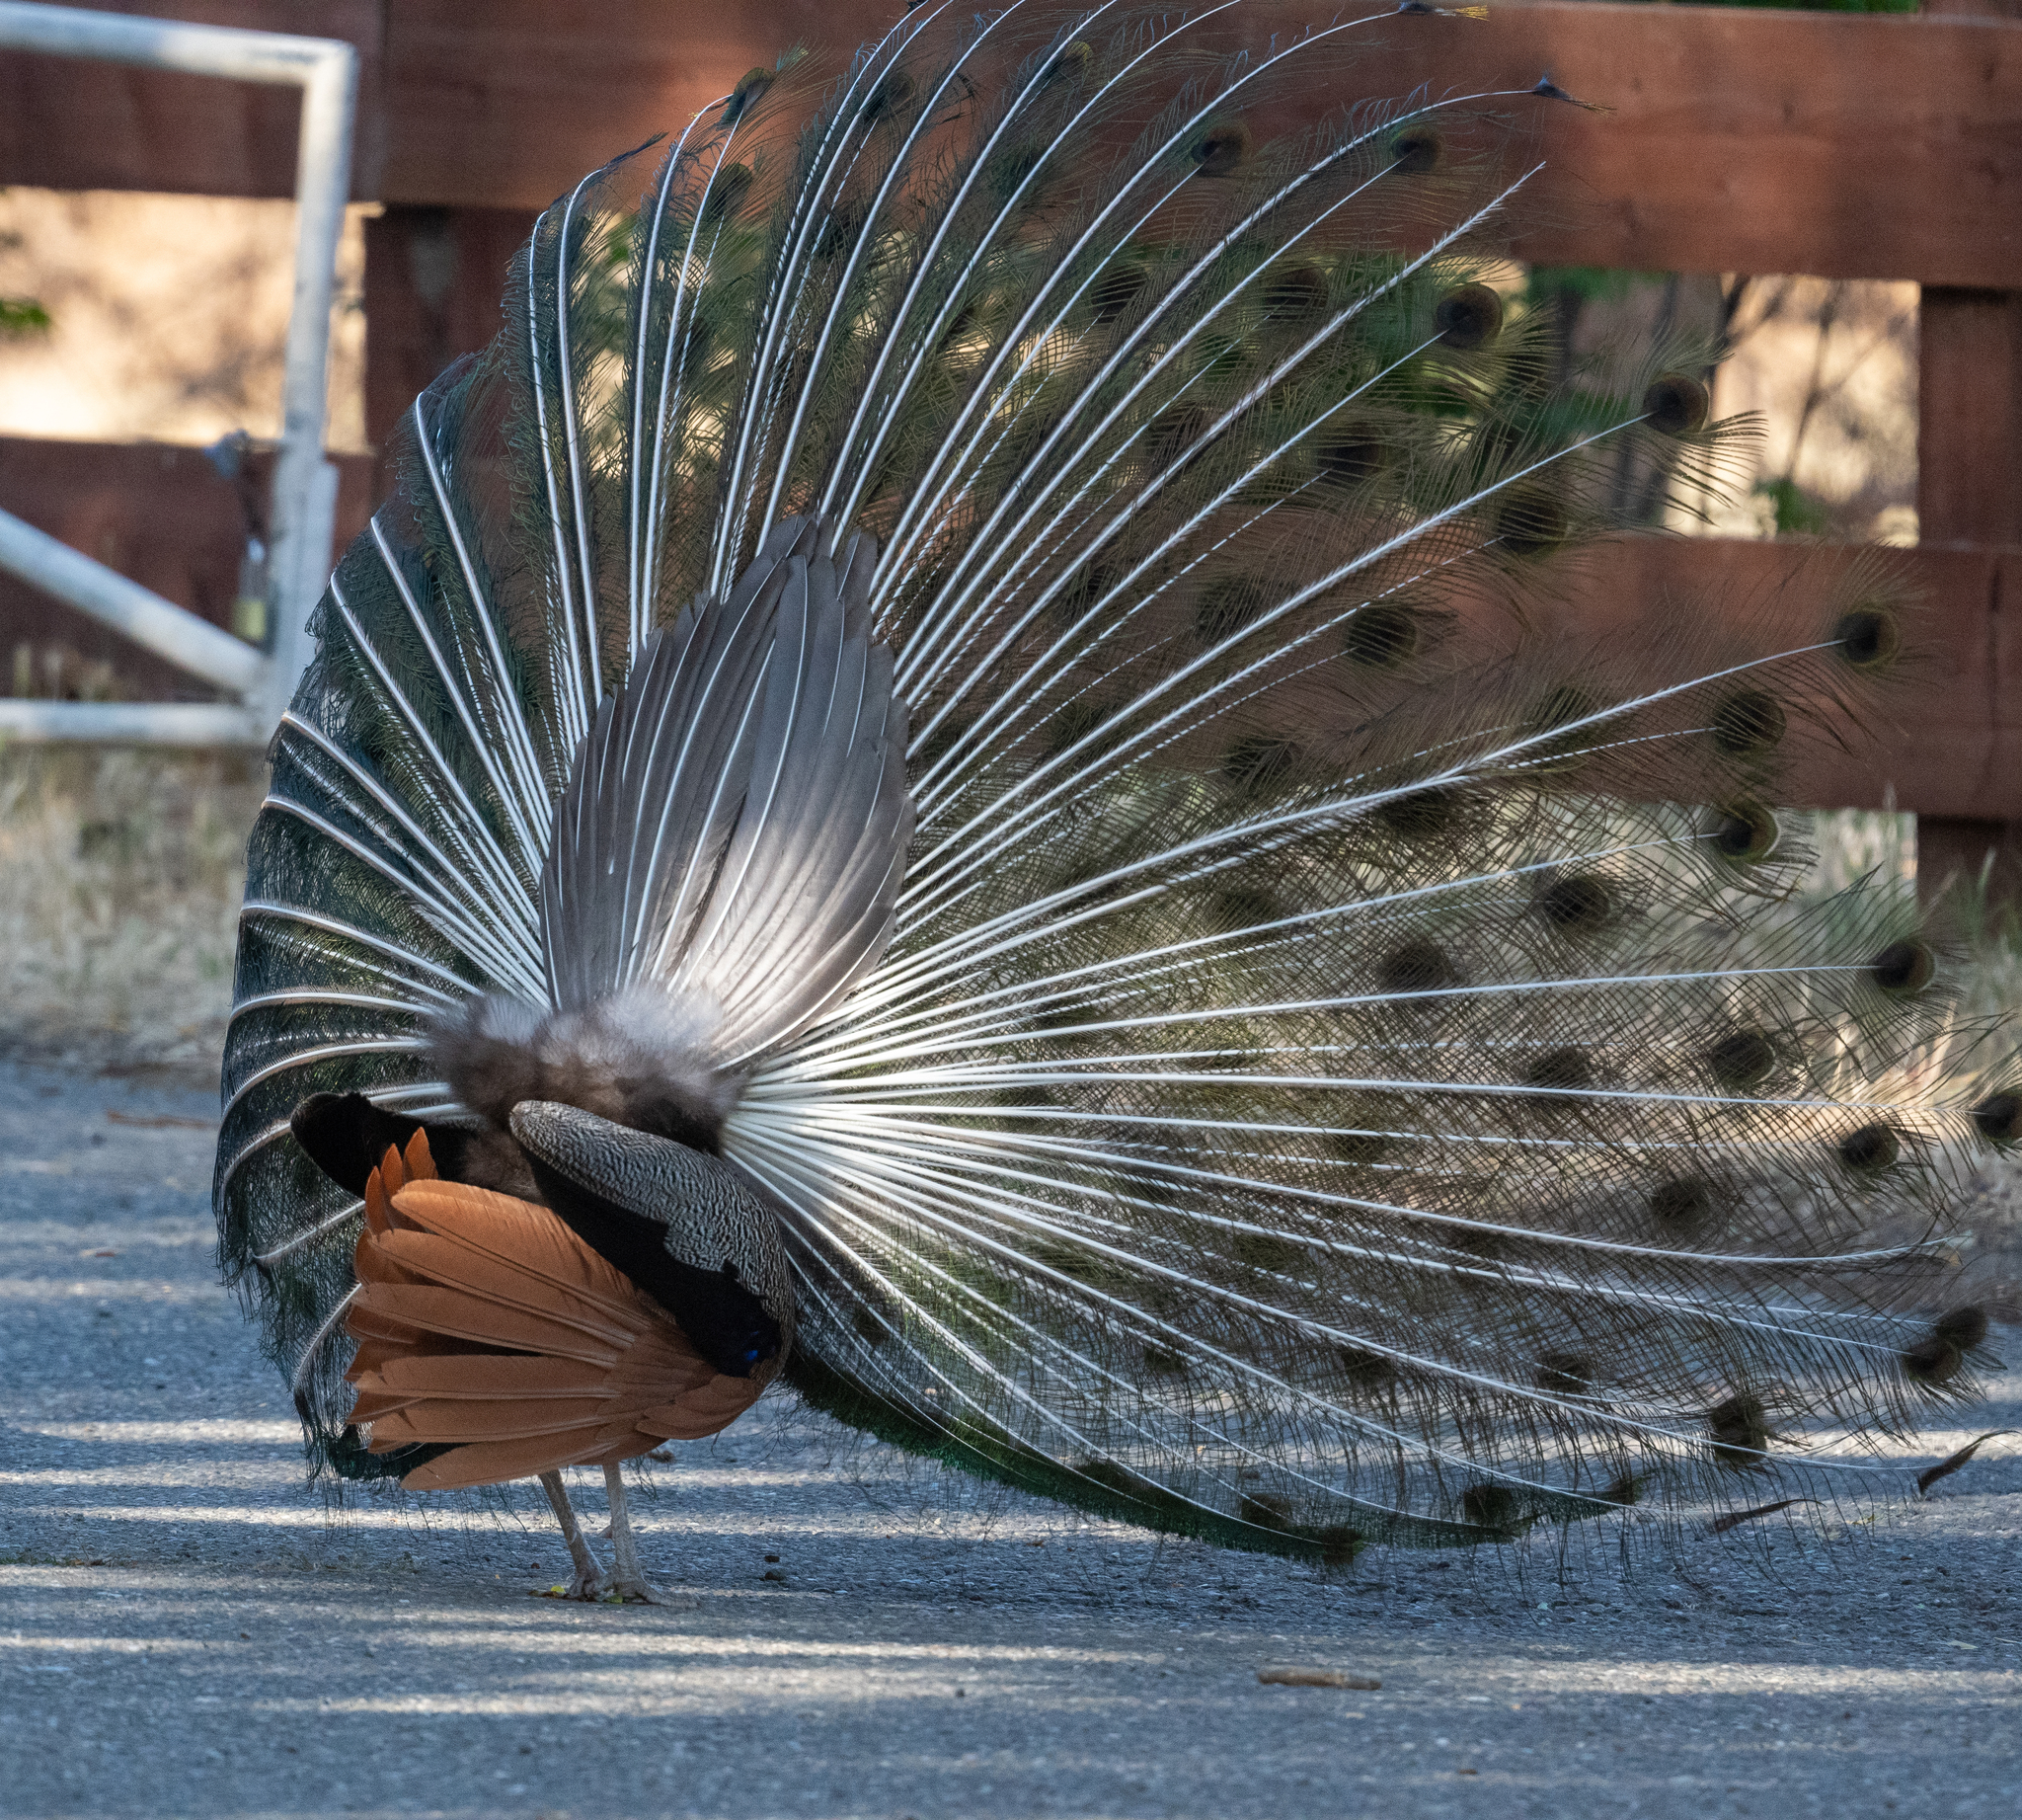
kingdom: Animalia
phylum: Chordata
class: Aves
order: Galliformes
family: Phasianidae
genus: Pavo
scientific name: Pavo cristatus
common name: Indian peafowl
